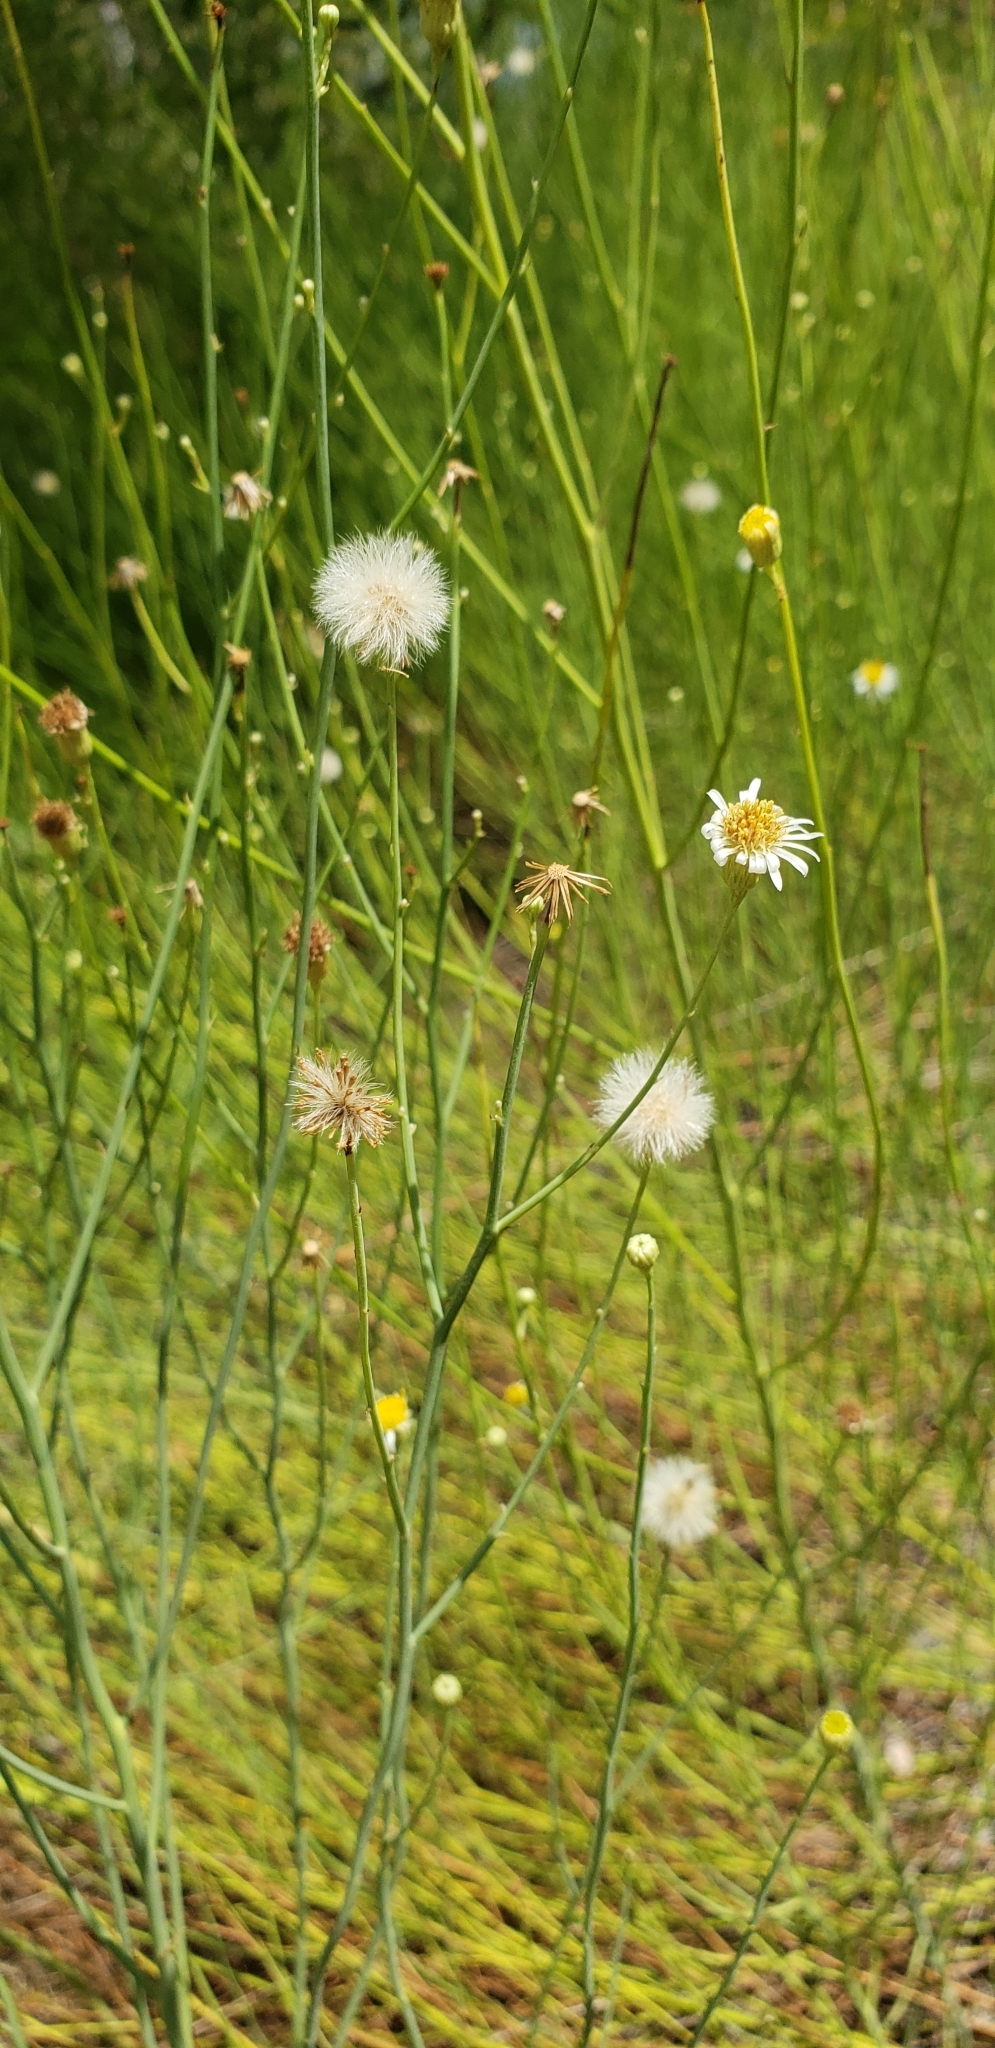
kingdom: Plantae
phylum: Tracheophyta
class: Magnoliopsida
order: Asterales
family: Asteraceae
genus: Chloracantha
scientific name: Chloracantha spinosa
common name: Mexican devilweed
